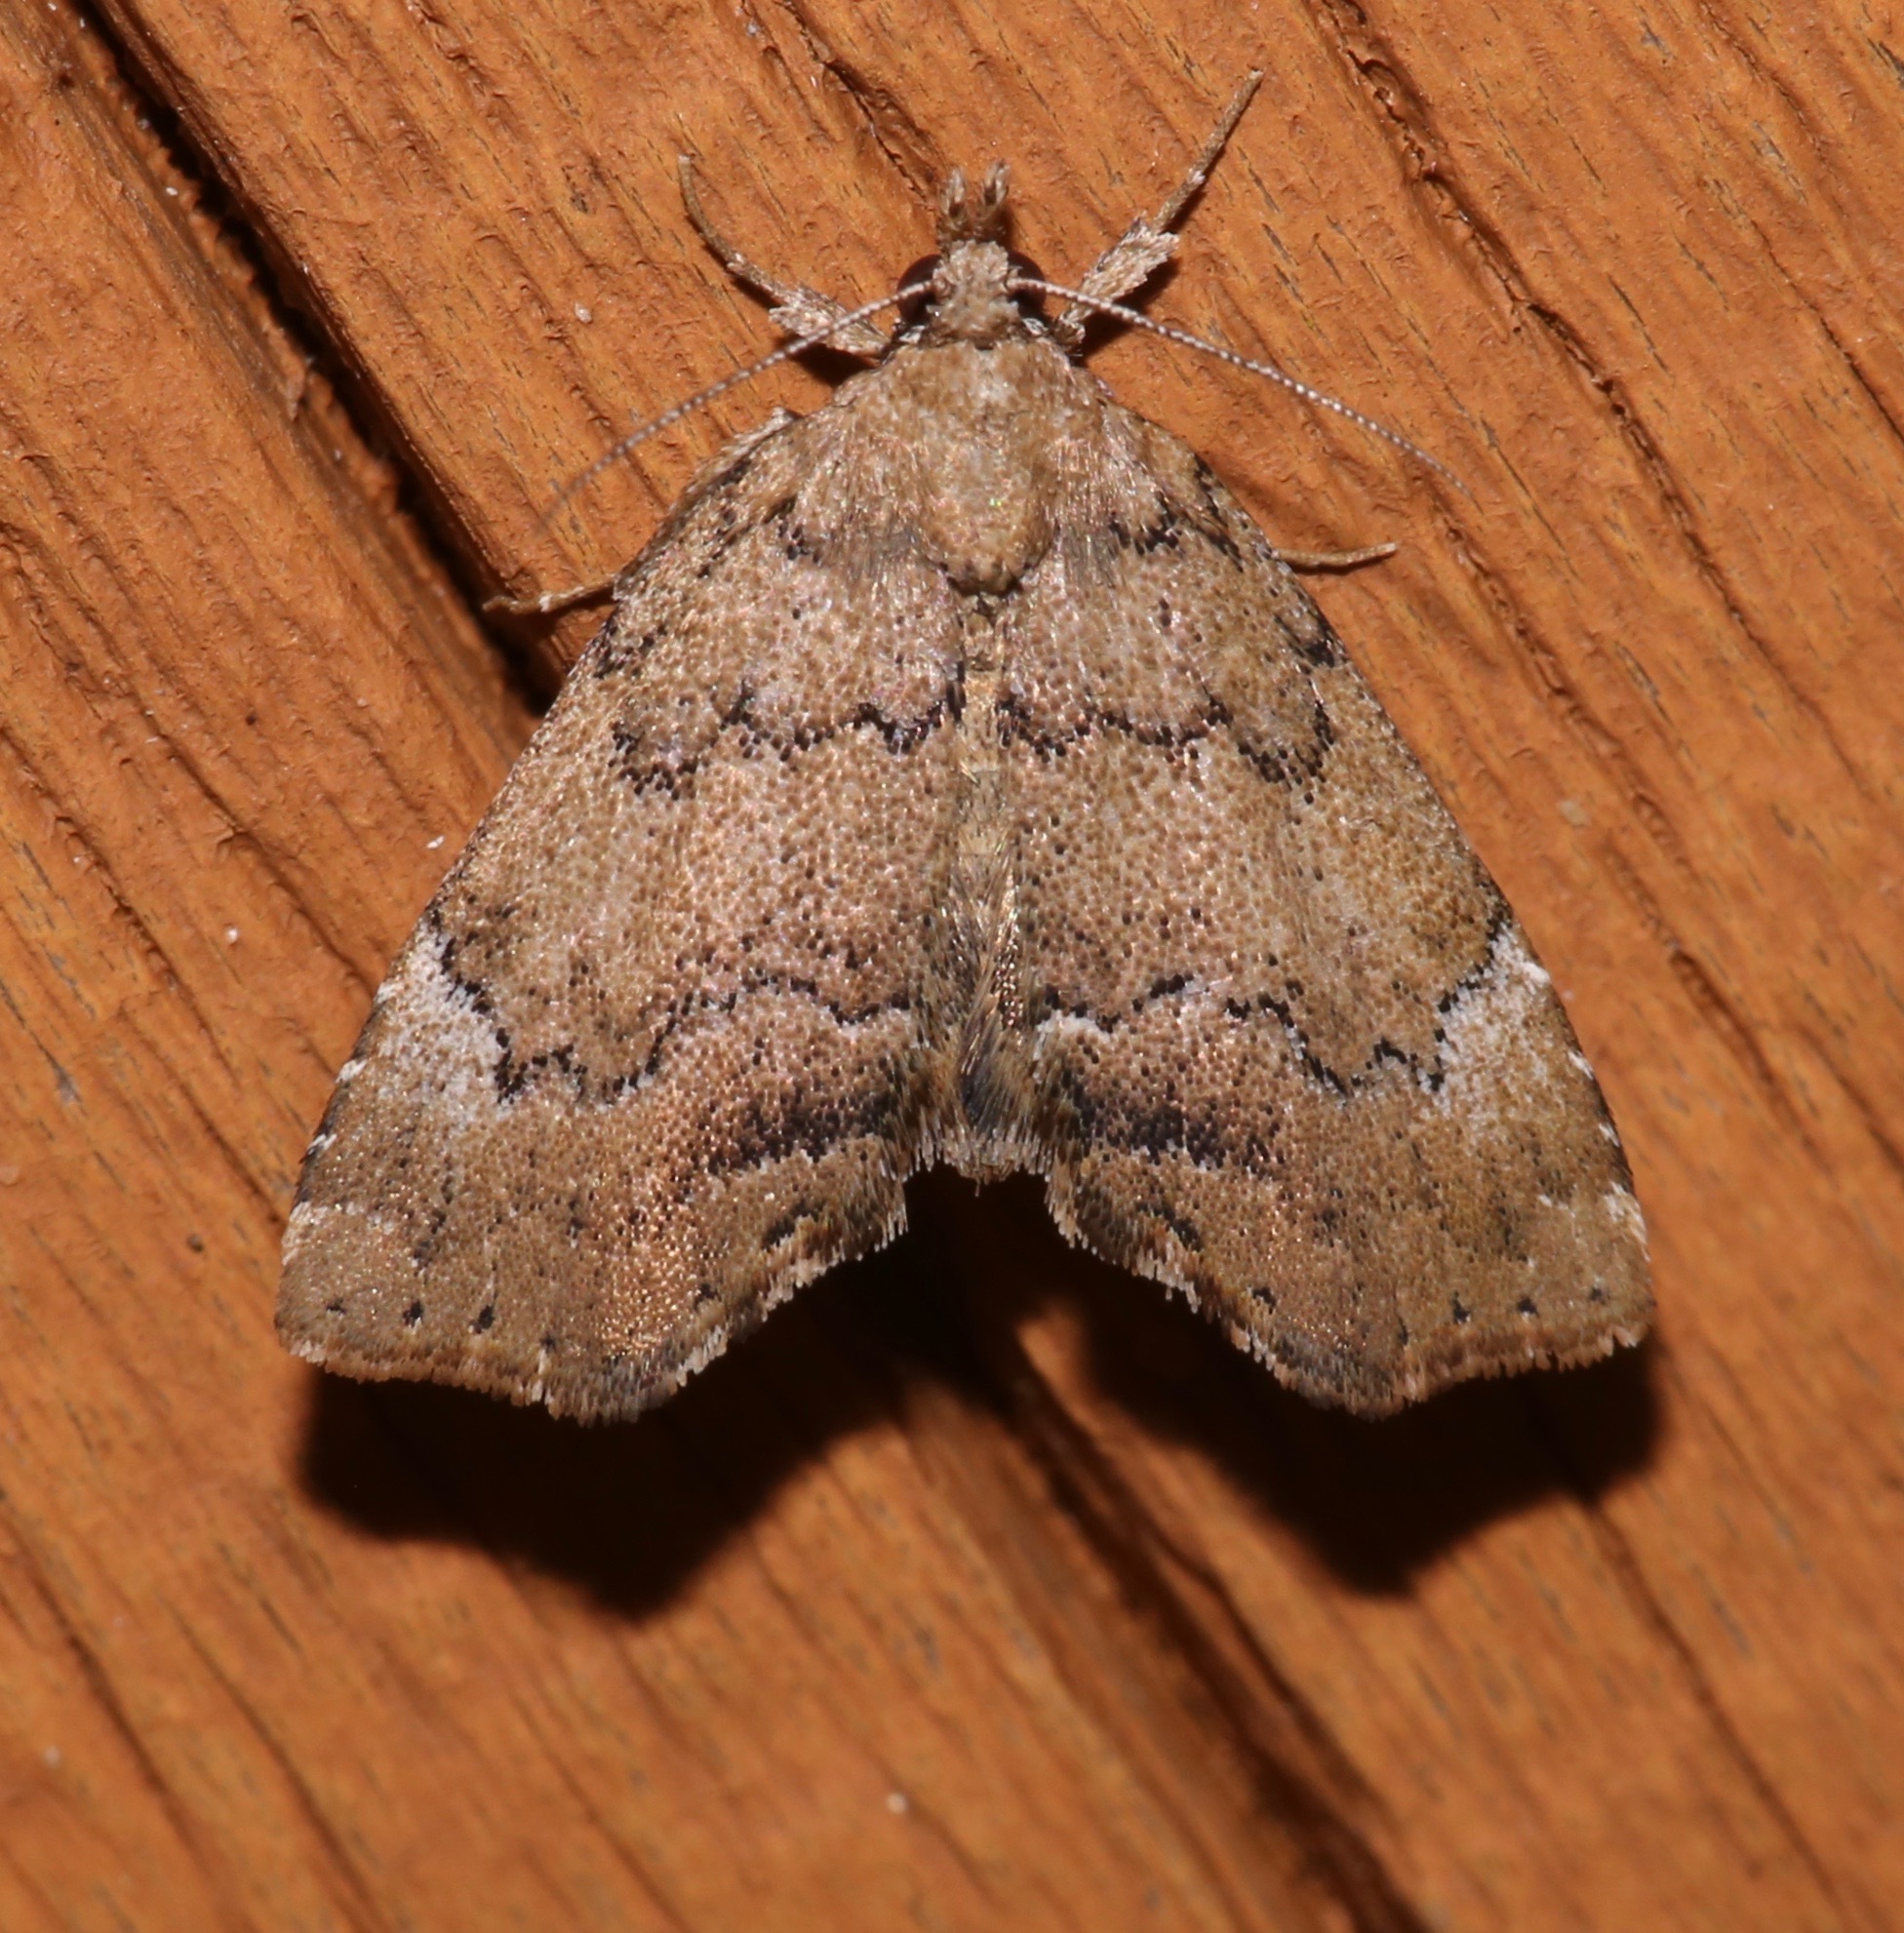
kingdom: Animalia
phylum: Arthropoda
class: Insecta
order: Lepidoptera
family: Erebidae
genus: Cutina
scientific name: Cutina aluticolor
